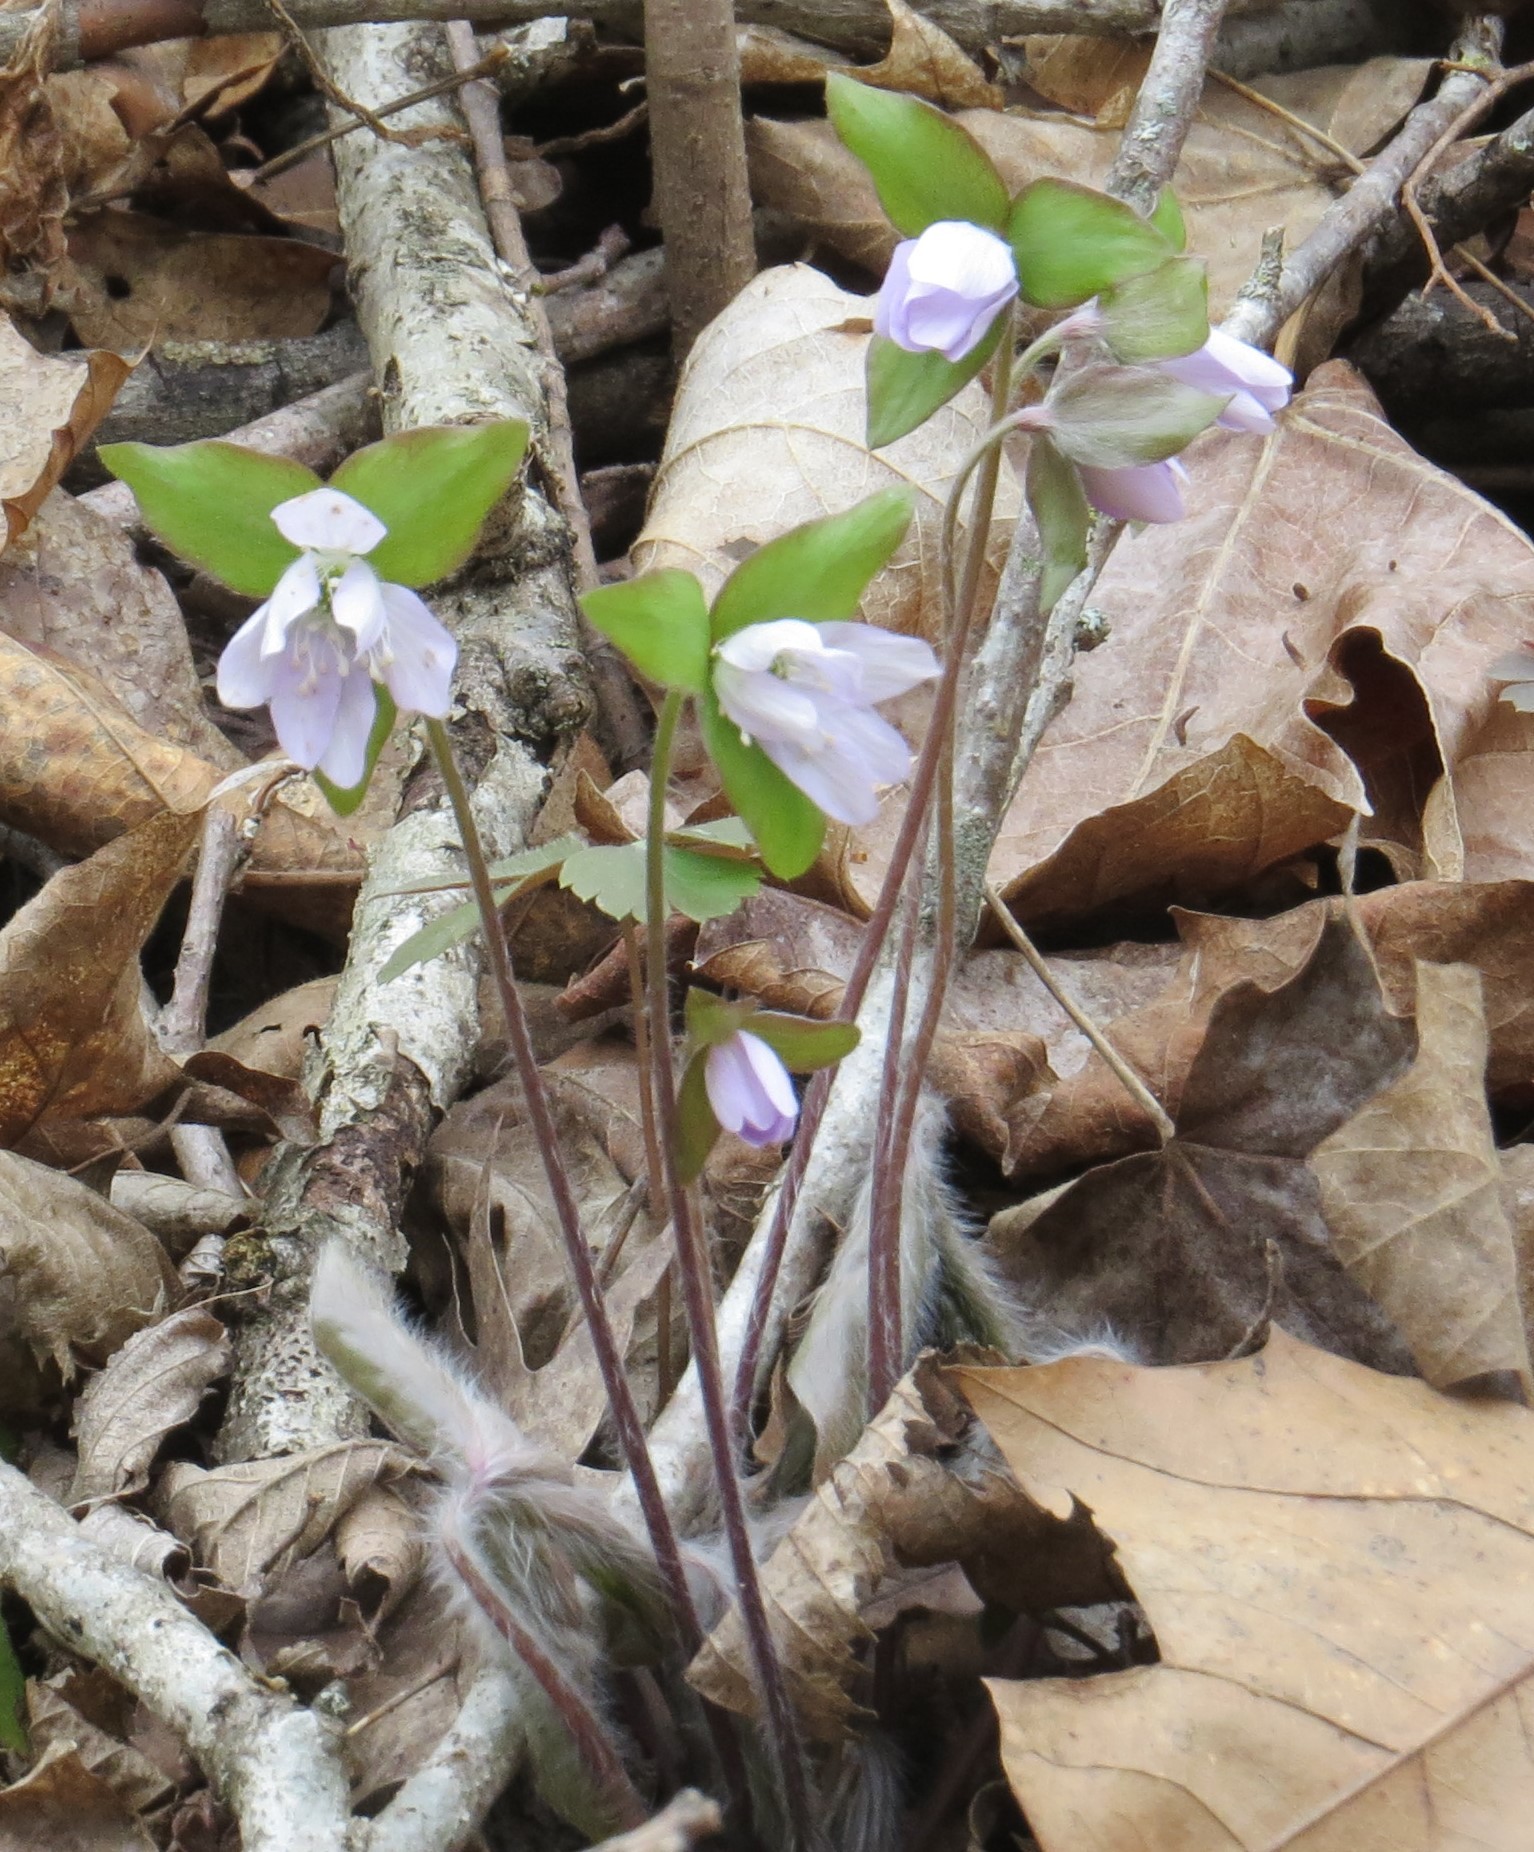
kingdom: Plantae
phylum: Tracheophyta
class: Magnoliopsida
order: Ranunculales
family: Ranunculaceae
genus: Hepatica
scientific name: Hepatica acutiloba
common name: Sharp-lobed hepatica
